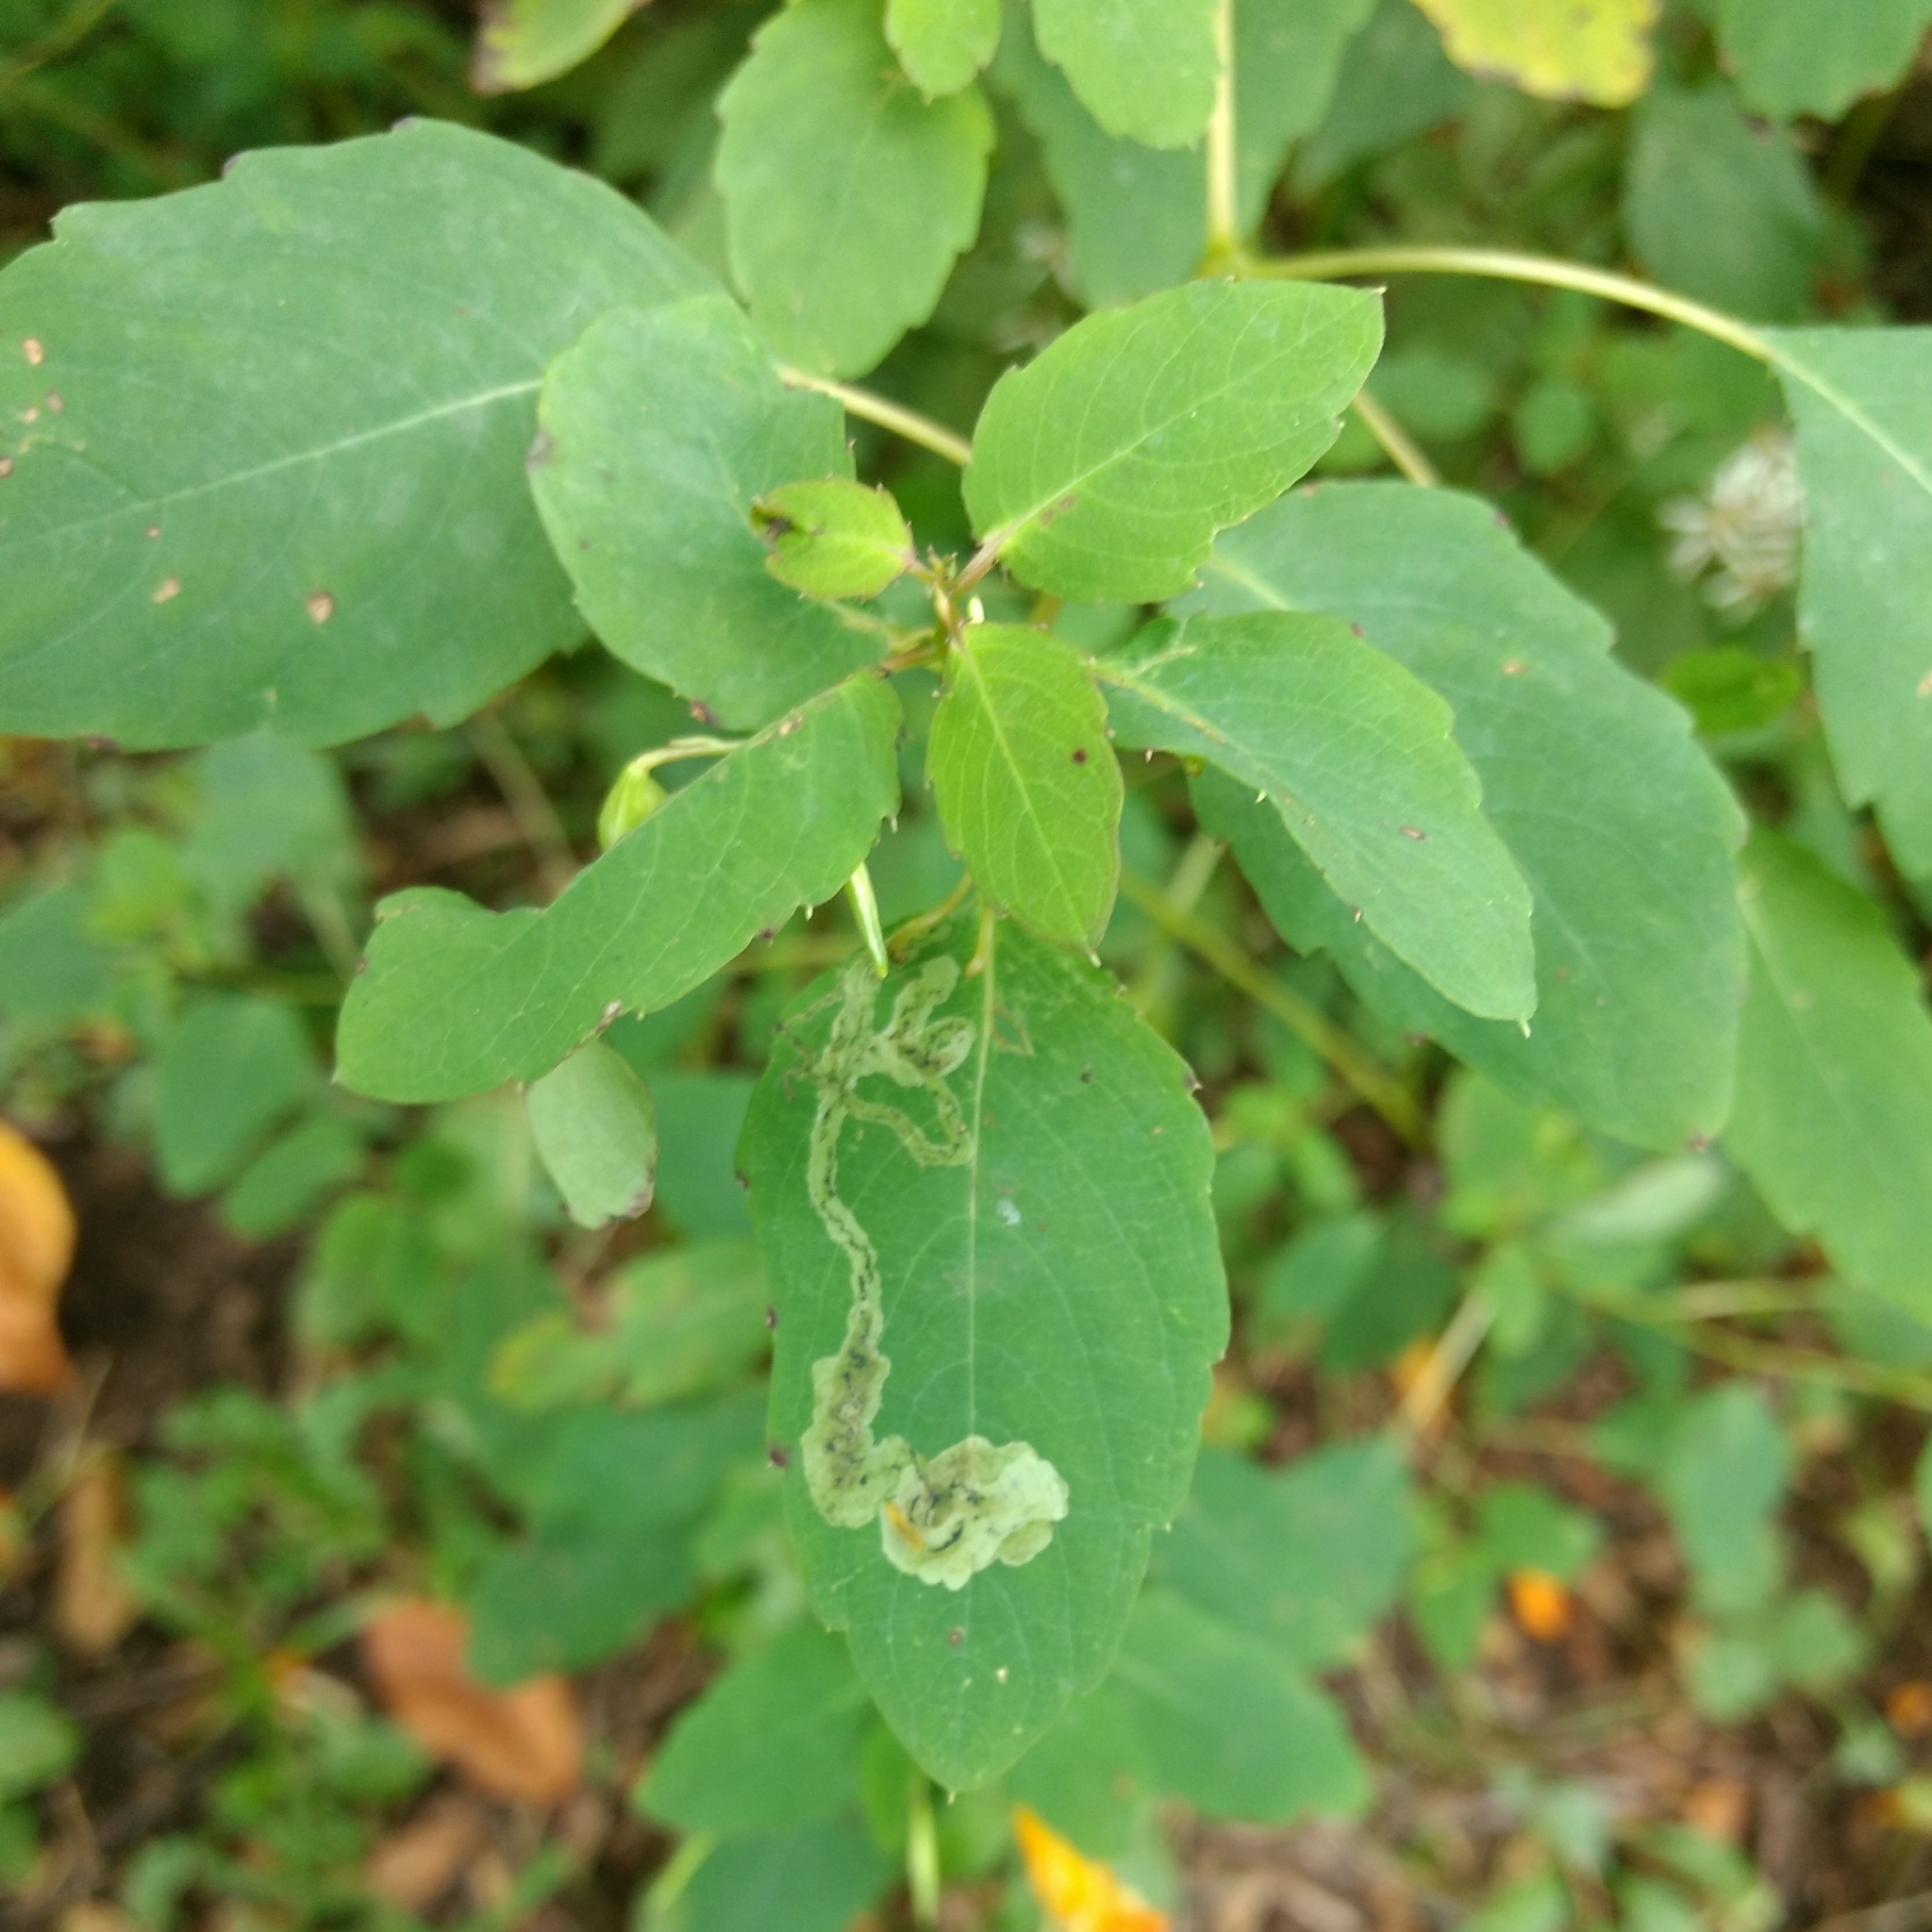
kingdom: Animalia
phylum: Arthropoda
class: Insecta
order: Diptera
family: Agromyzidae
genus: Phytoliriomyza
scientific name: Phytoliriomyza melampyga
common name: Jewelweed leaf-miner fly
